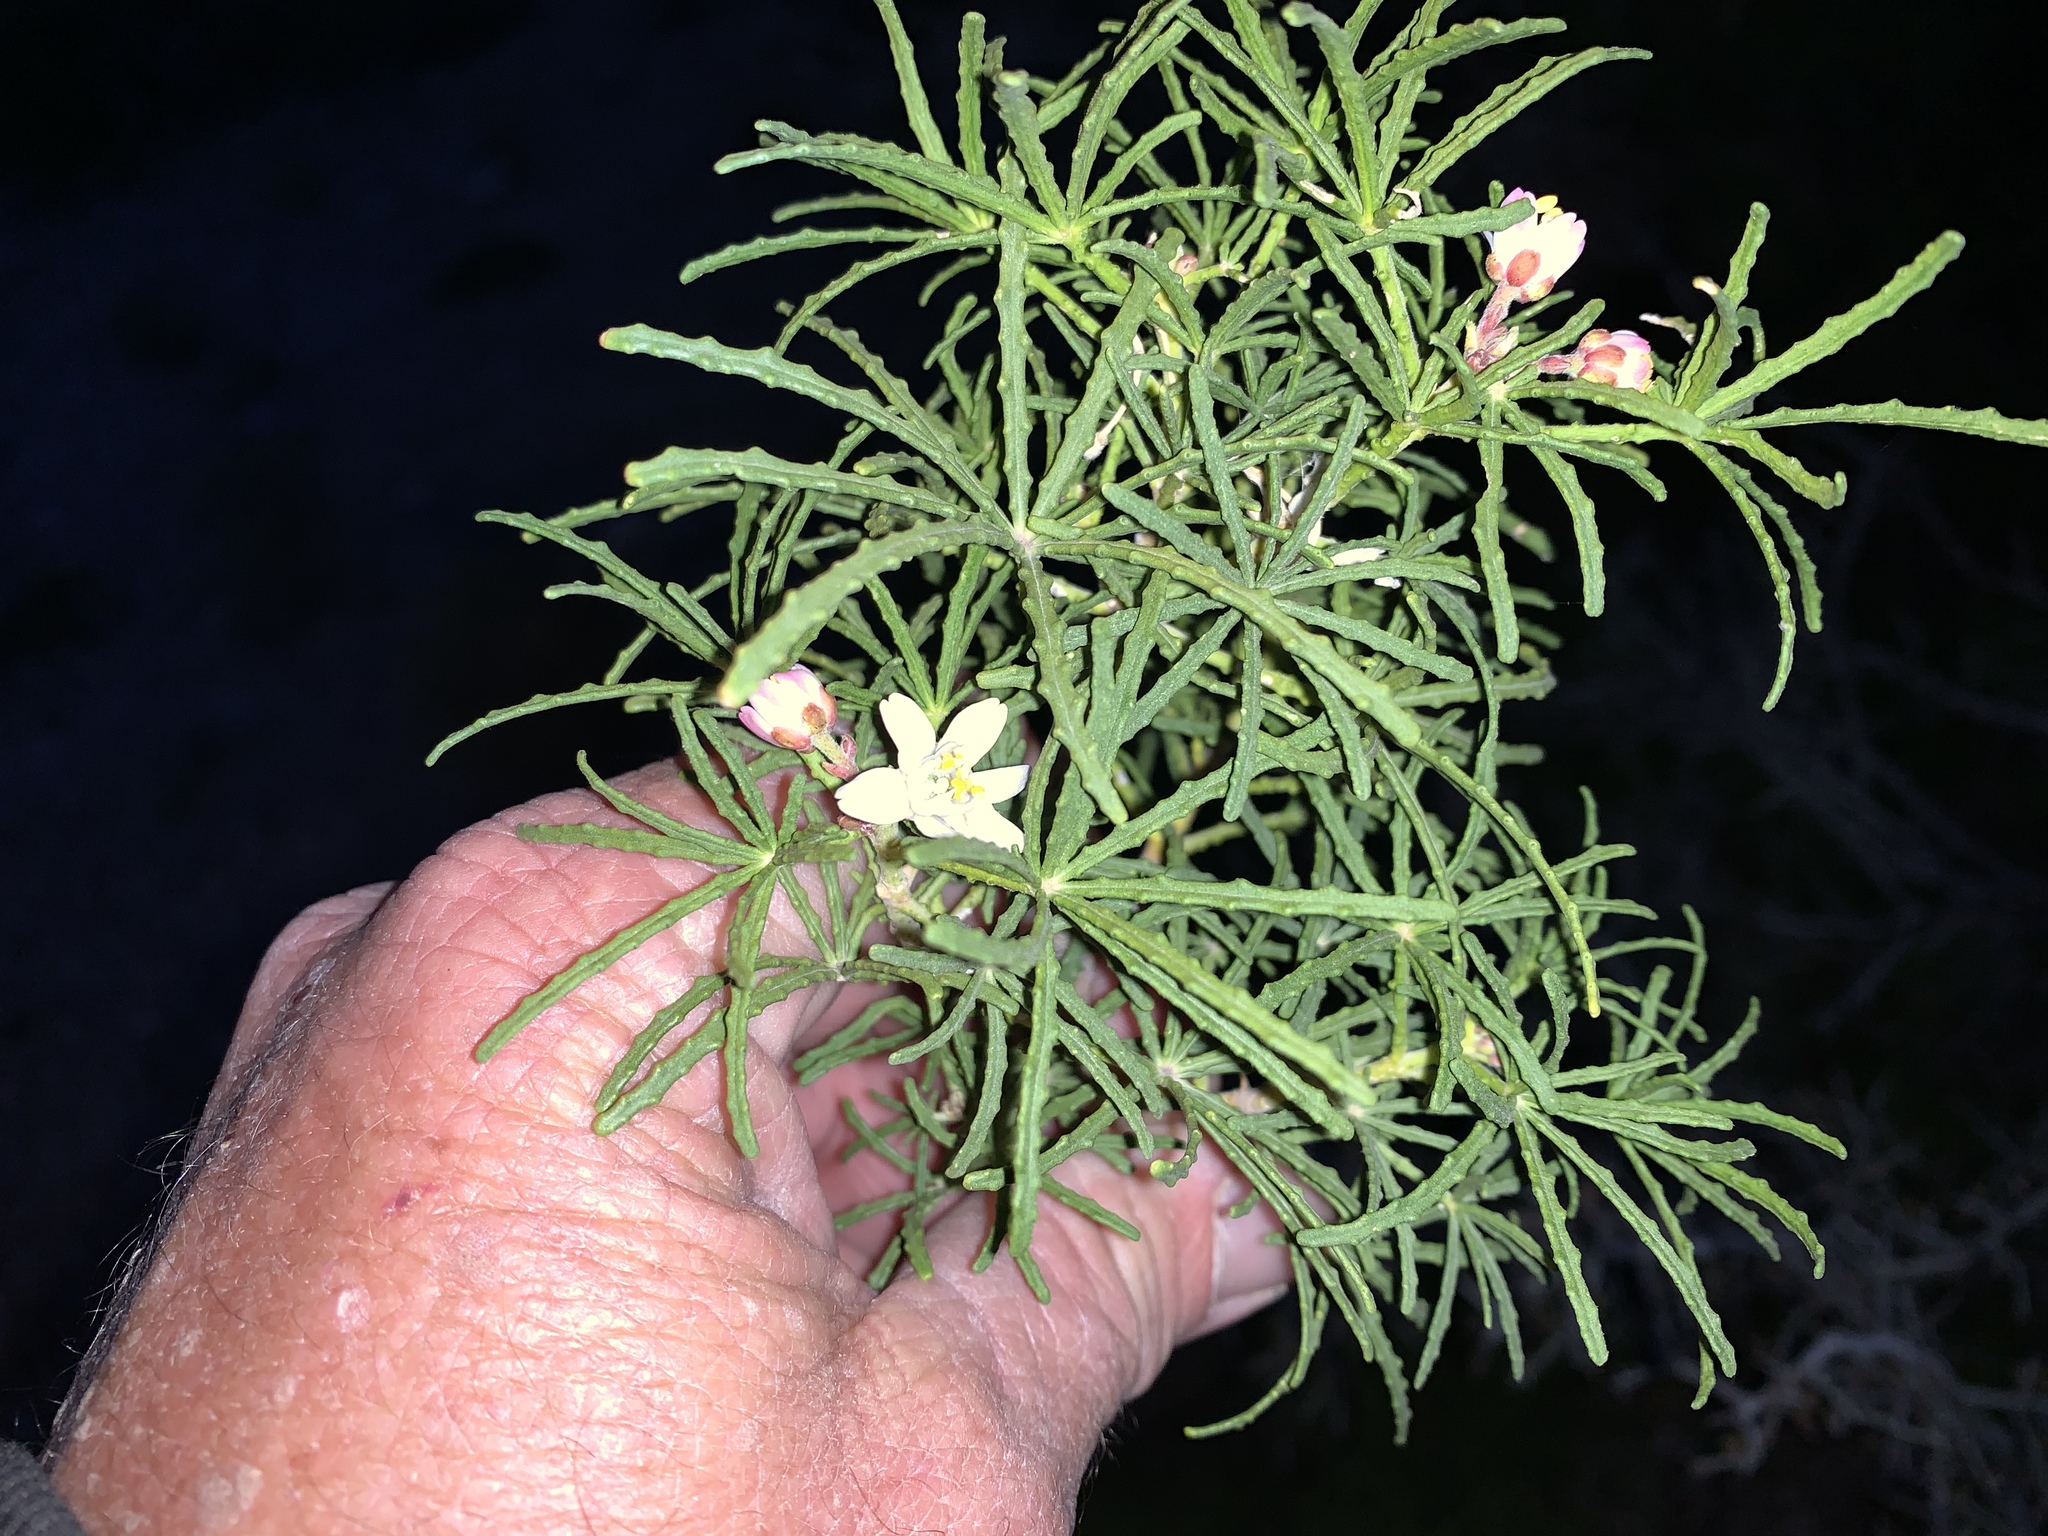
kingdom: Plantae
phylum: Tracheophyta
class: Magnoliopsida
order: Sapindales
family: Rutaceae
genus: Choisya
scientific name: Choisya dumosa
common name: Mexican-orange
